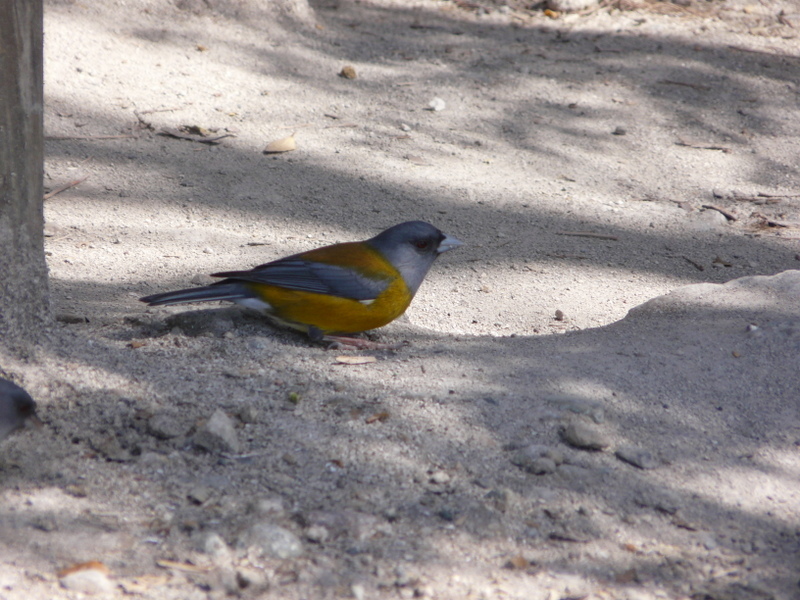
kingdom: Animalia
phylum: Chordata
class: Aves
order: Passeriformes
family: Thraupidae
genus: Phrygilus
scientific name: Phrygilus gayi
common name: Grey-hooded sierra finch
